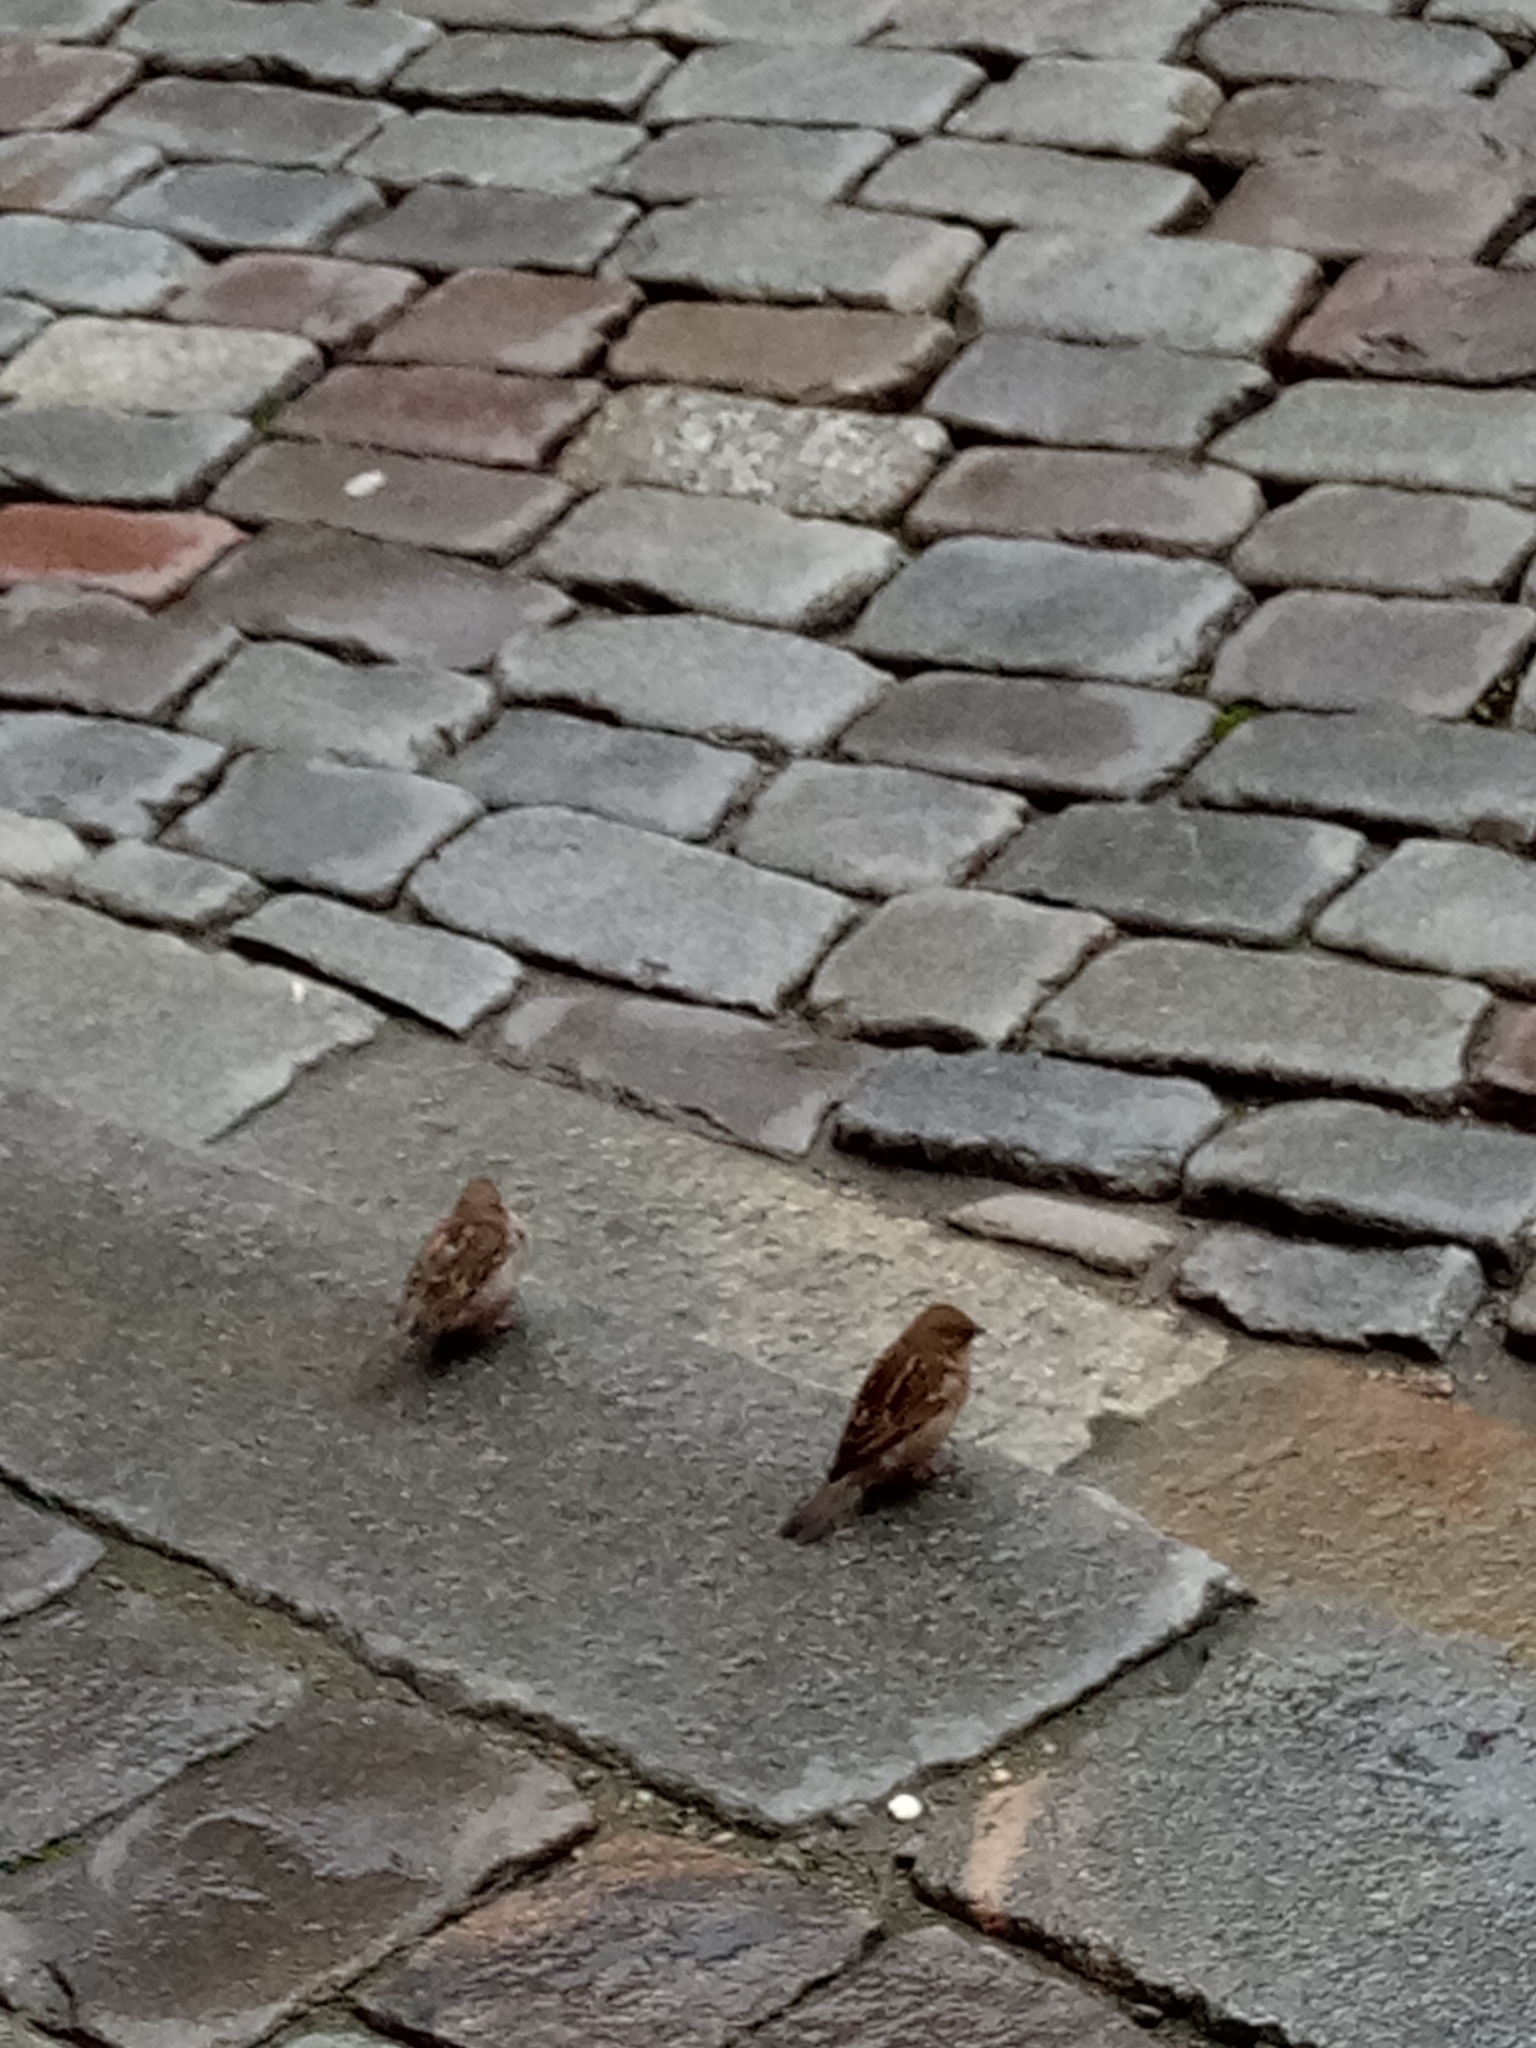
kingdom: Animalia
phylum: Chordata
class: Aves
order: Passeriformes
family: Passeridae
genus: Passer
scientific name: Passer domesticus
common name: House sparrow
